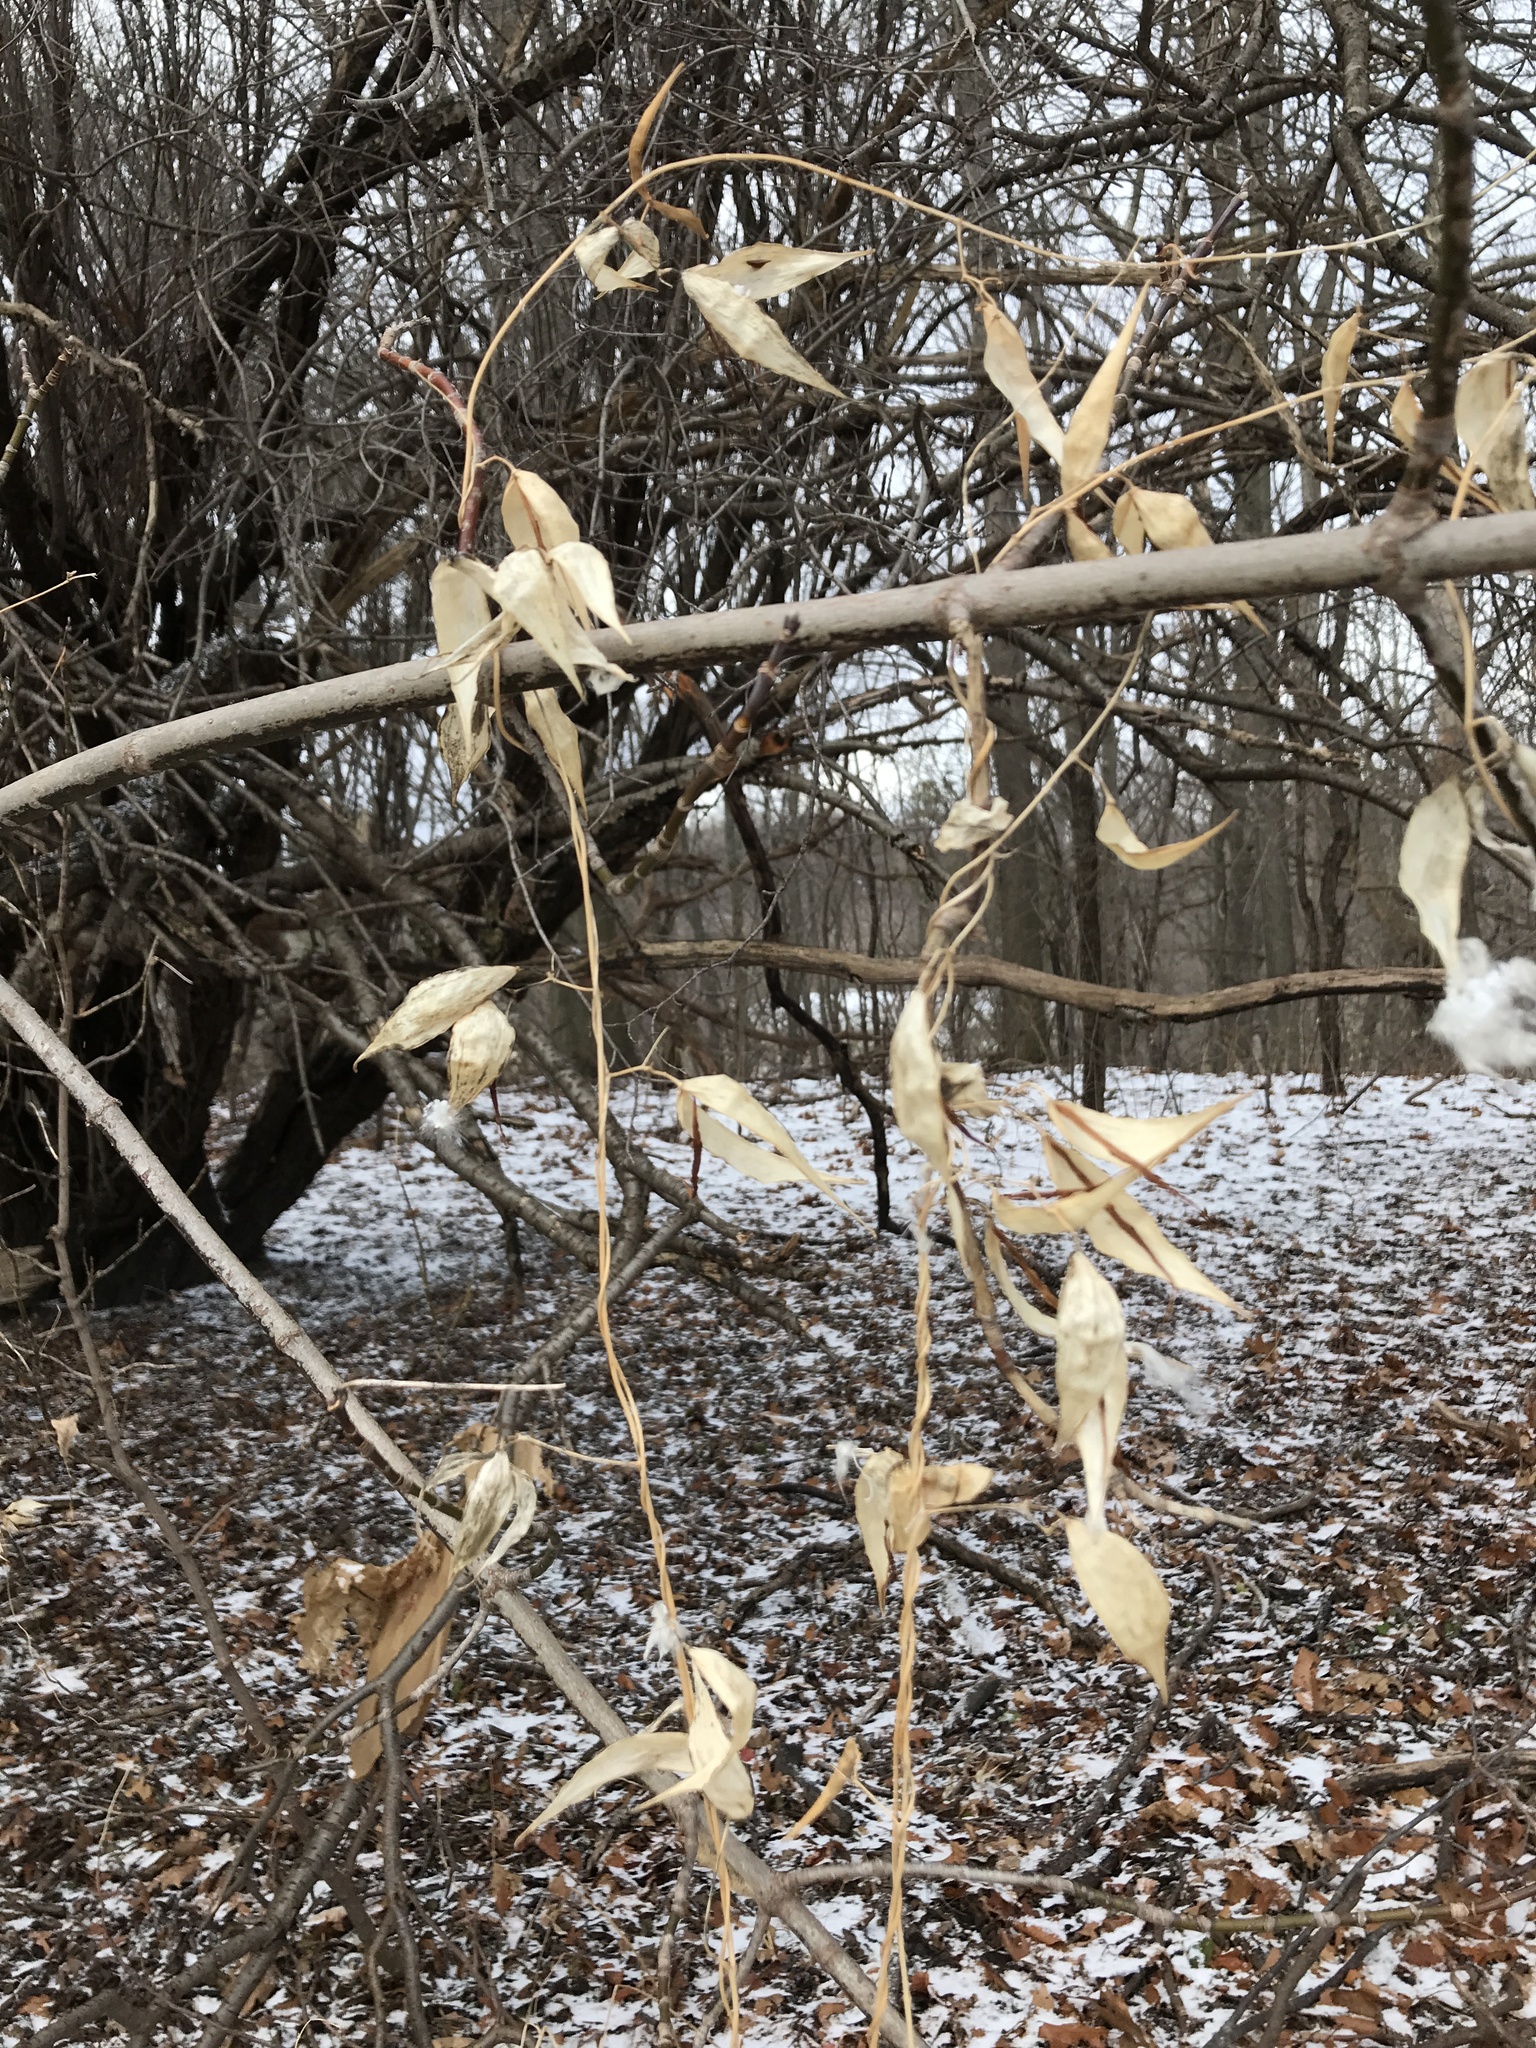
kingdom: Plantae
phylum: Tracheophyta
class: Magnoliopsida
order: Gentianales
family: Apocynaceae
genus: Vincetoxicum
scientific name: Vincetoxicum rossicum
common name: Dog-strangling vine
